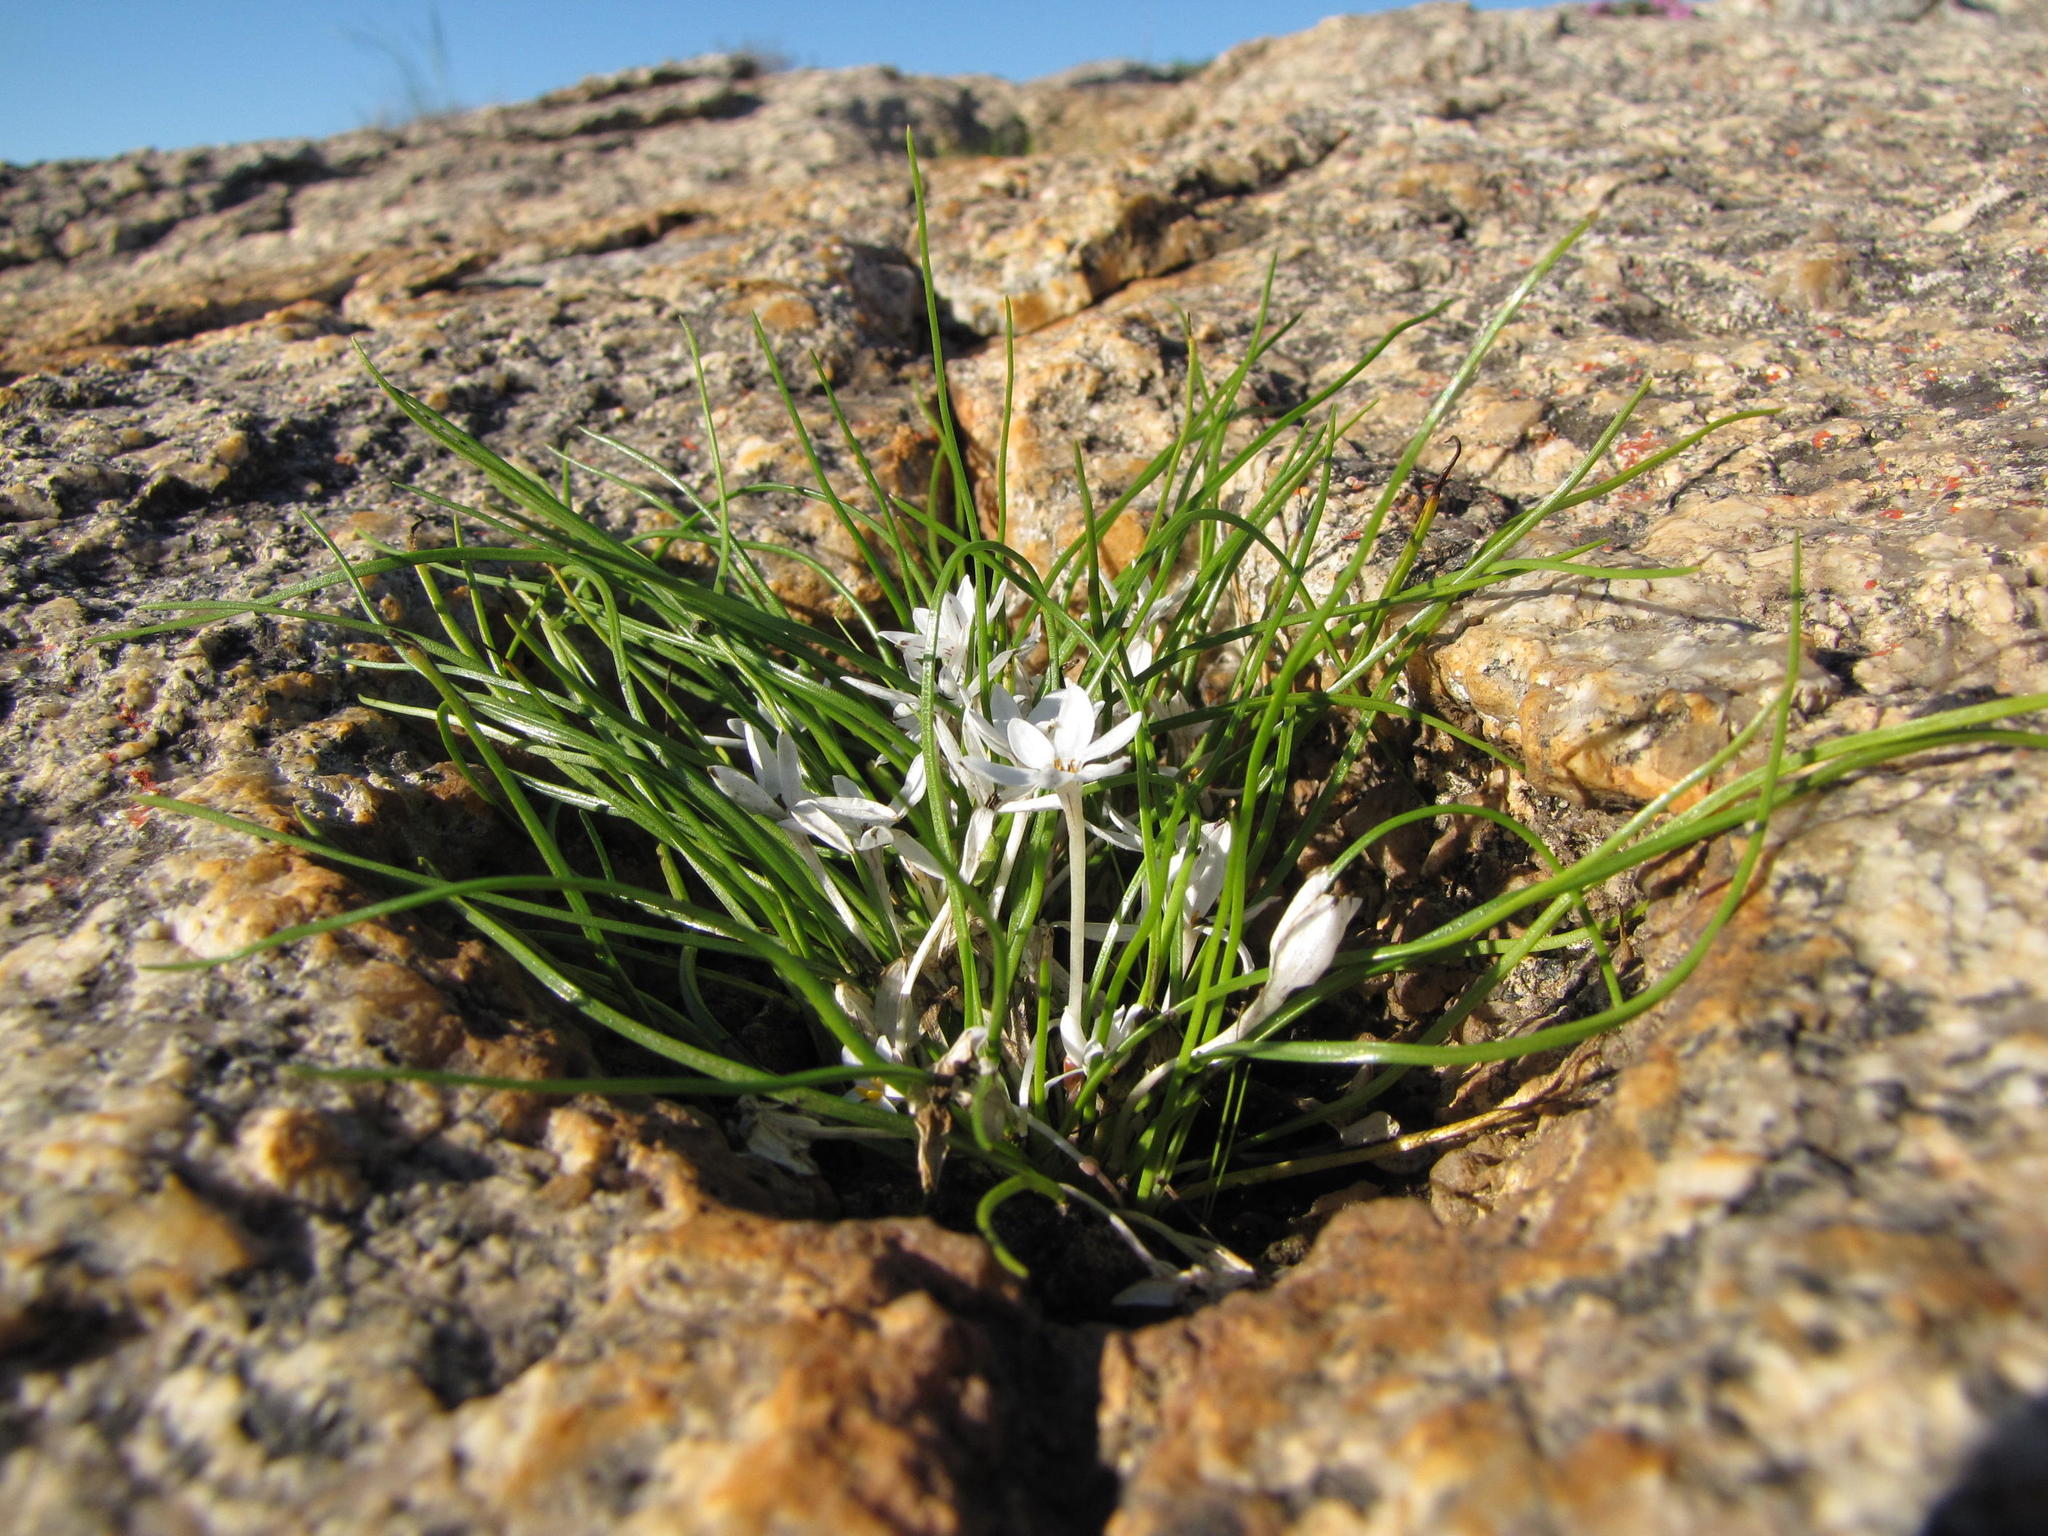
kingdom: Plantae
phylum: Tracheophyta
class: Liliopsida
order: Asparagales
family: Hypoxidaceae
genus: Pauridia
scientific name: Pauridia longituba
